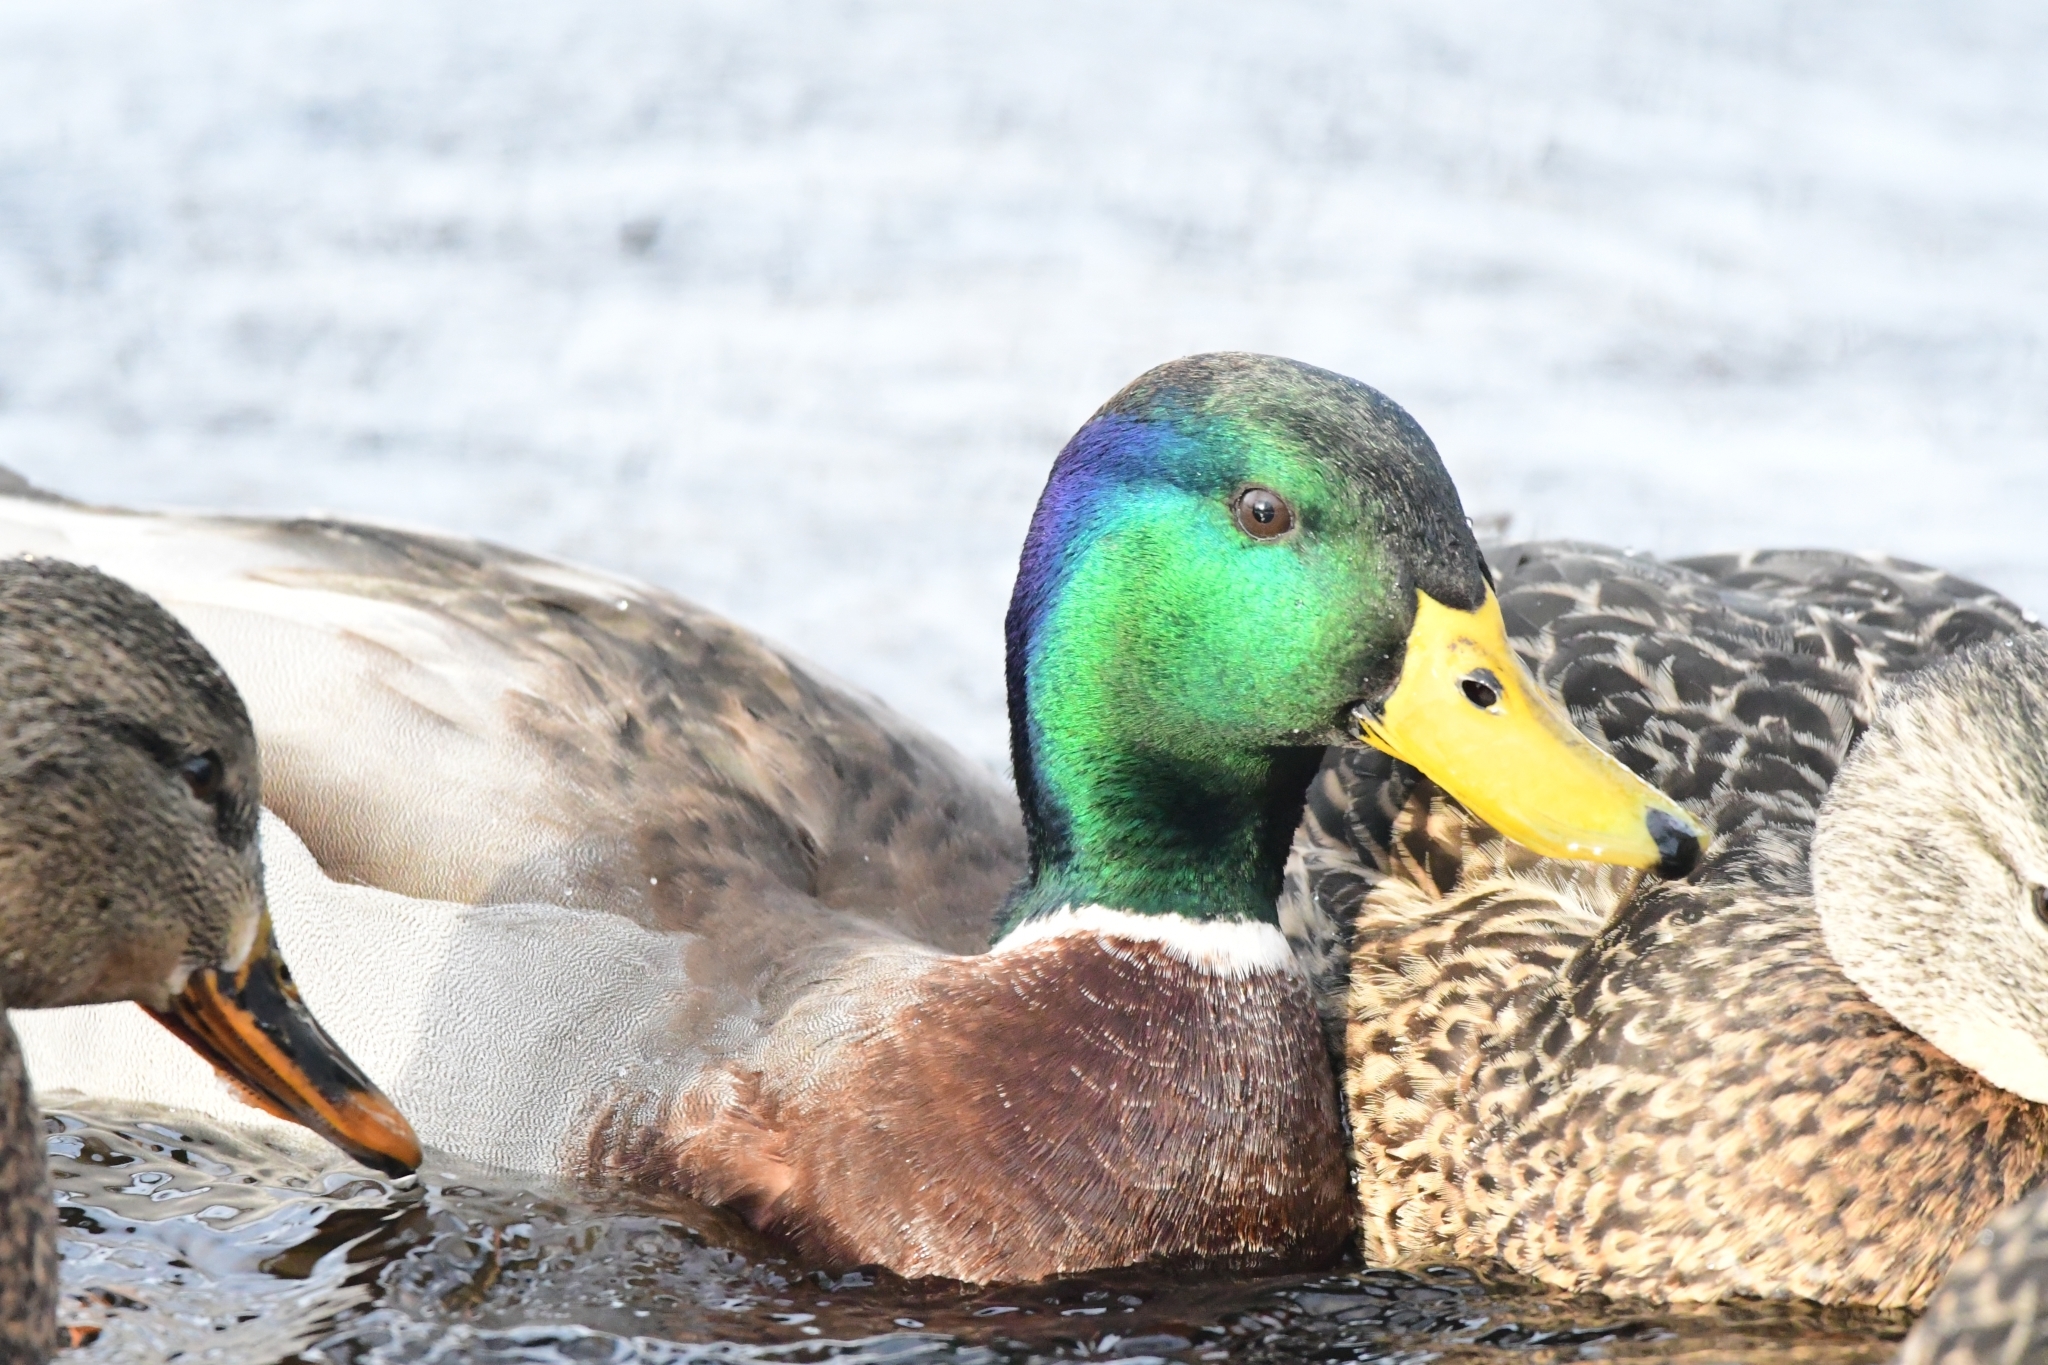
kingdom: Animalia
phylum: Chordata
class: Aves
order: Anseriformes
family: Anatidae
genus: Anas
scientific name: Anas platyrhynchos
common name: Mallard
